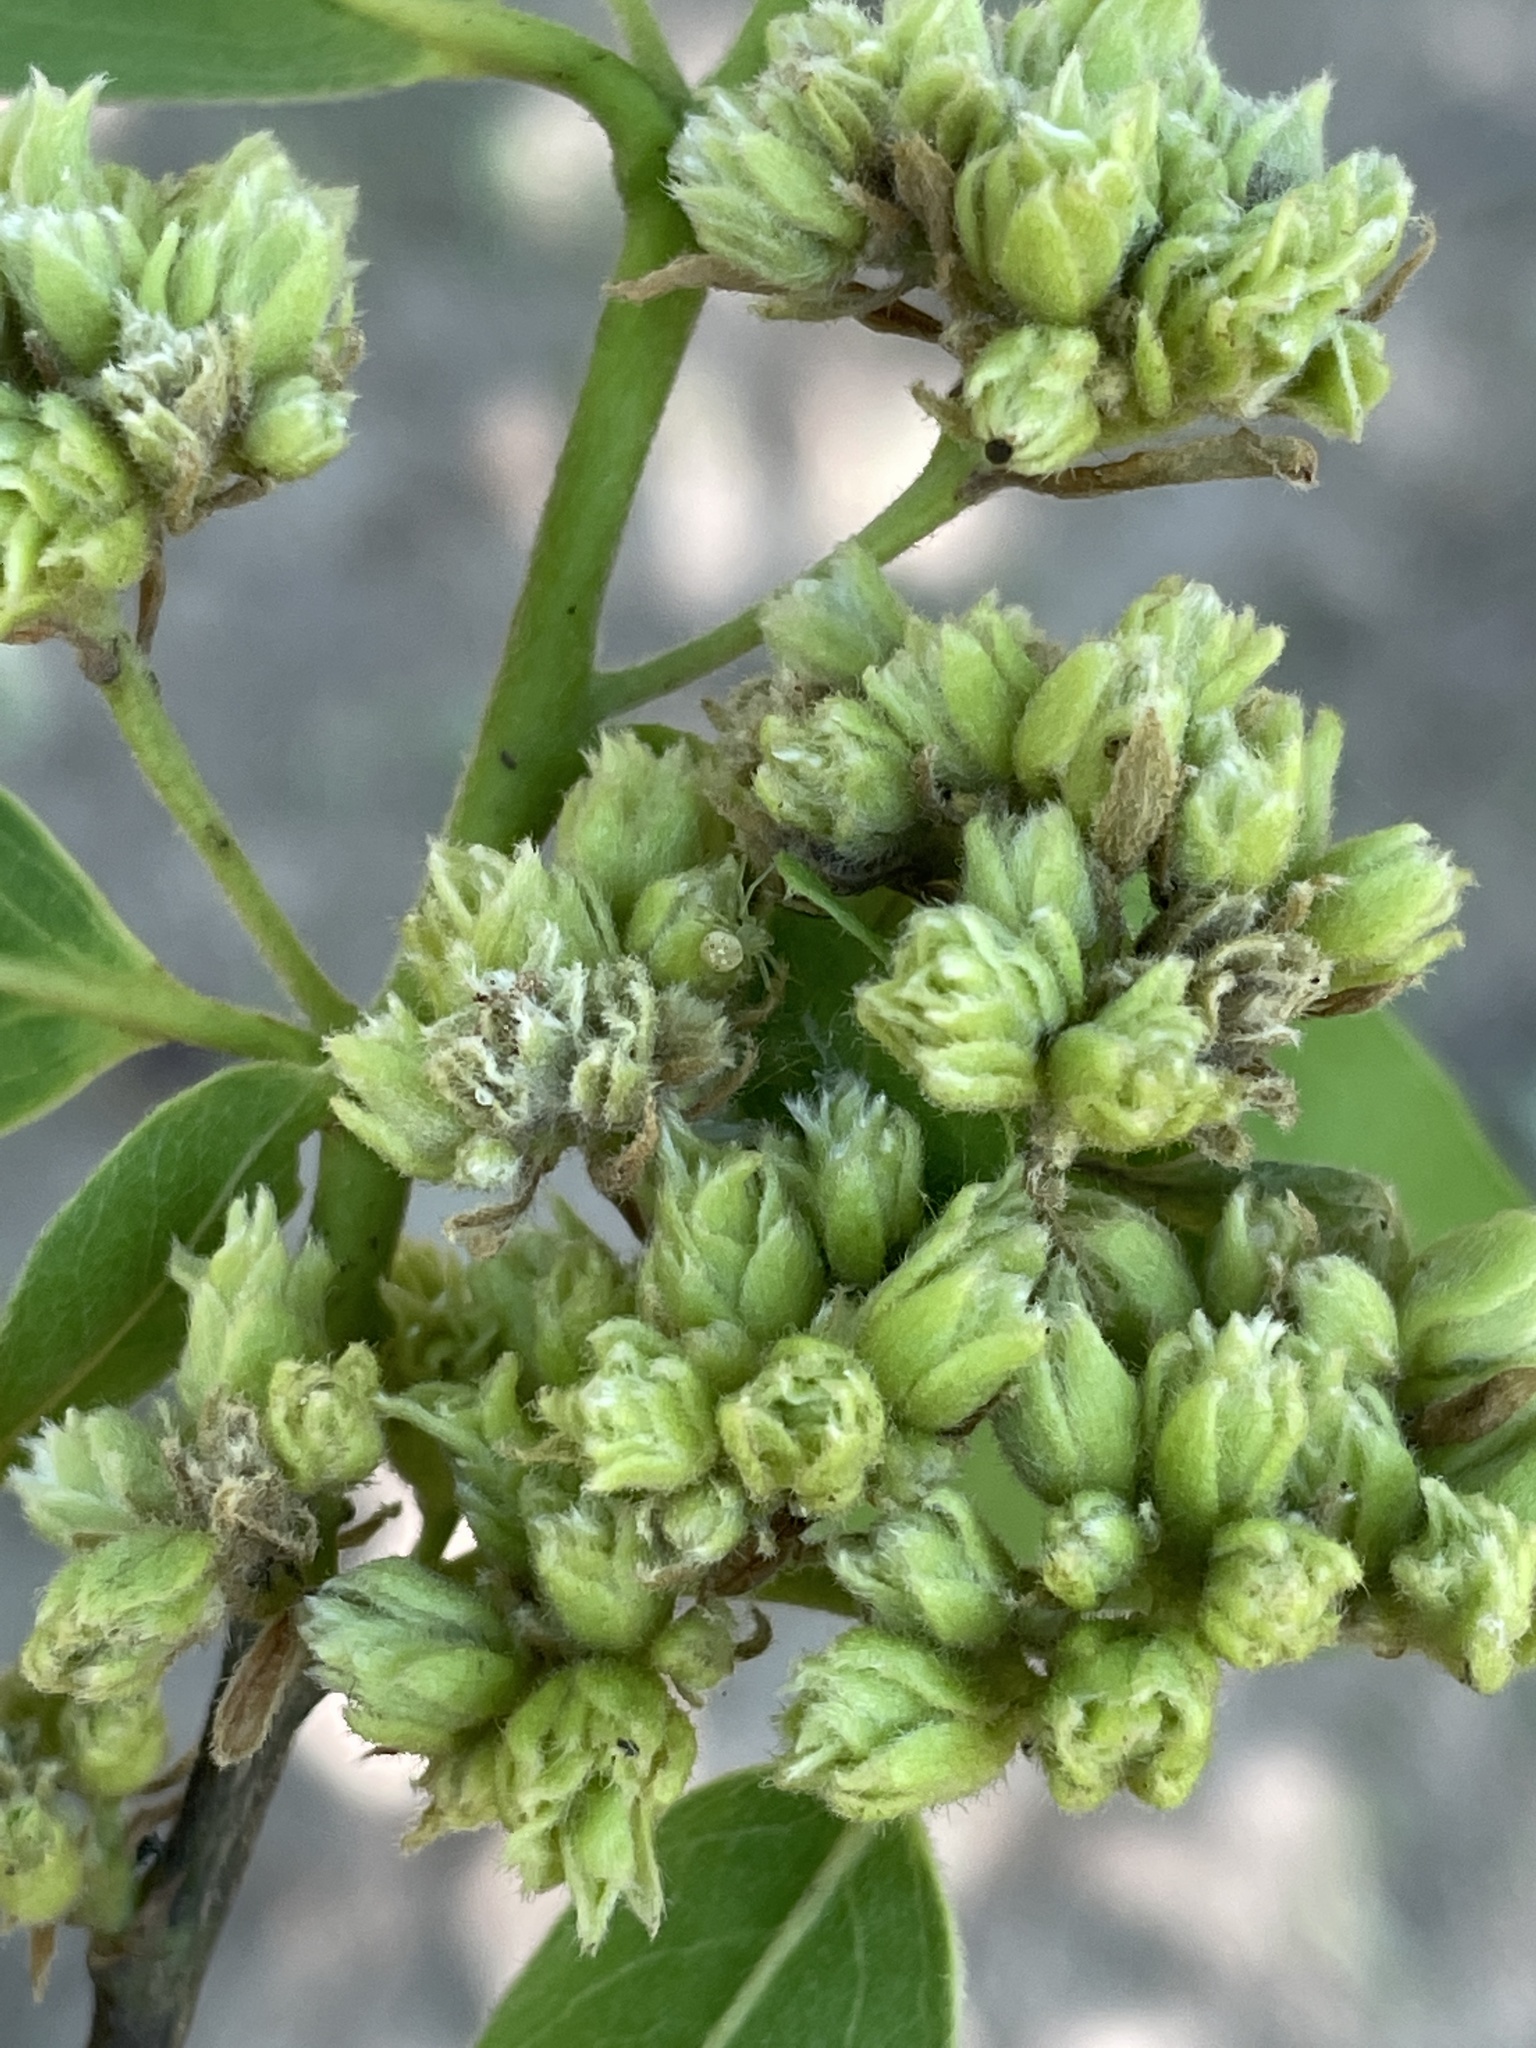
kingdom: Plantae
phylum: Tracheophyta
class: Magnoliopsida
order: Ericales
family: Ebenaceae
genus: Diospyros
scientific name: Diospyros mespiliformis
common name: Ebony diospyros
